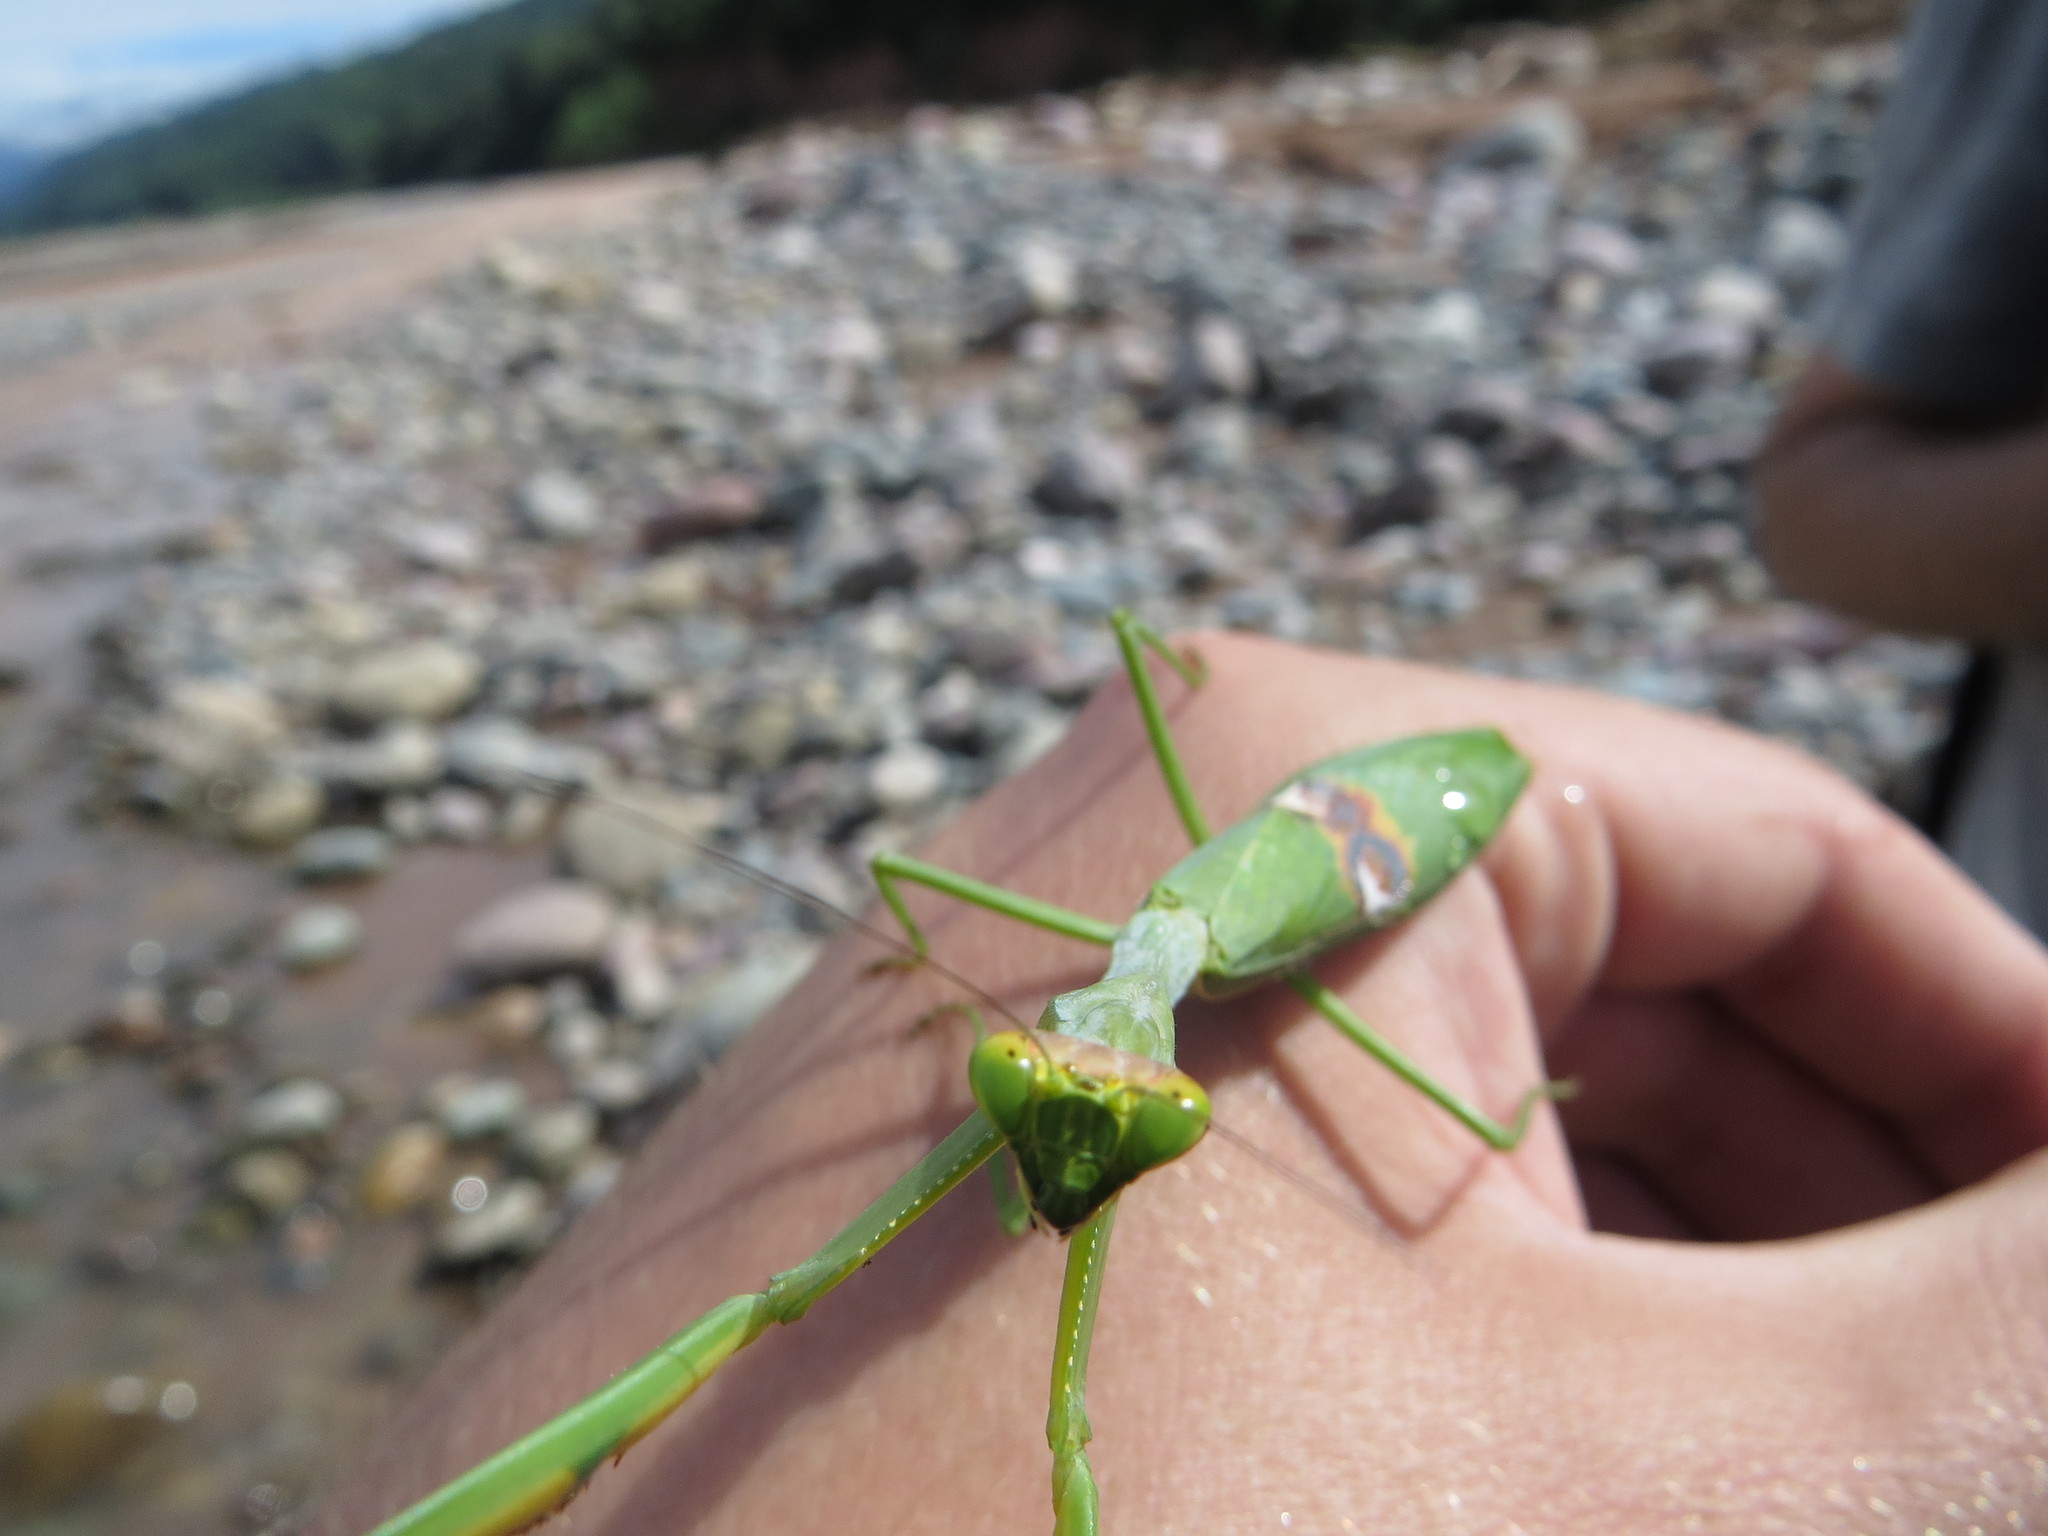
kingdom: Animalia
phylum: Arthropoda
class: Insecta
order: Mantodea
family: Mantidae
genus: Stagmatoptera
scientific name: Stagmatoptera hyaloptera
